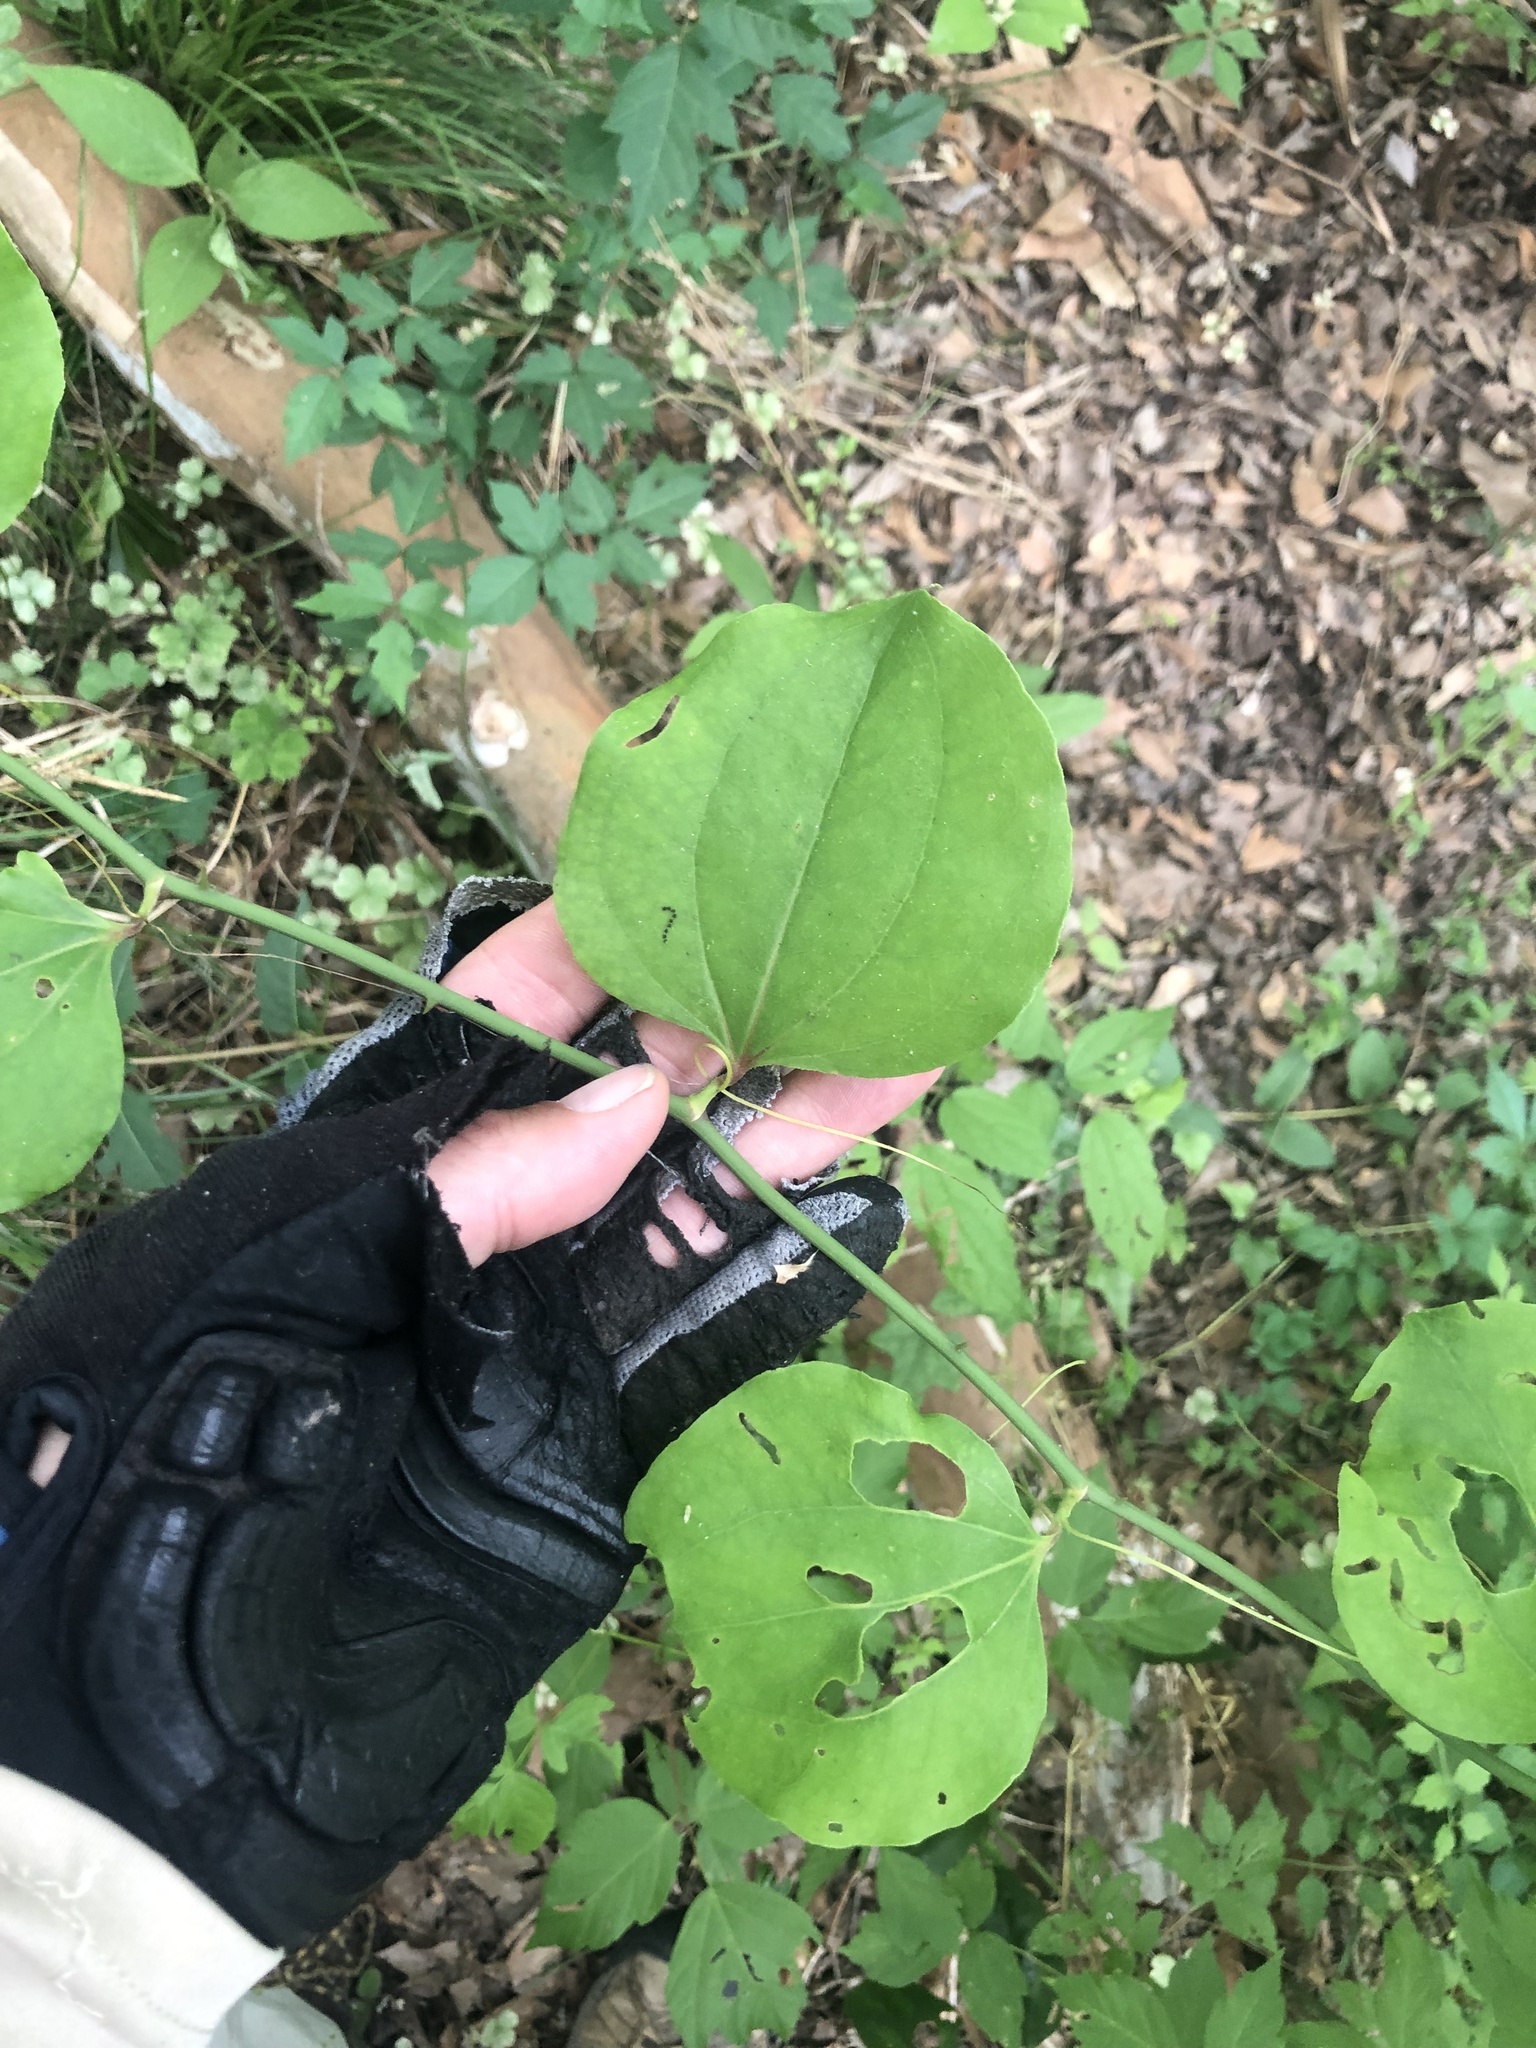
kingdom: Plantae
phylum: Tracheophyta
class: Liliopsida
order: Liliales
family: Smilacaceae
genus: Smilax
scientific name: Smilax rotundifolia
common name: Bullbriar
